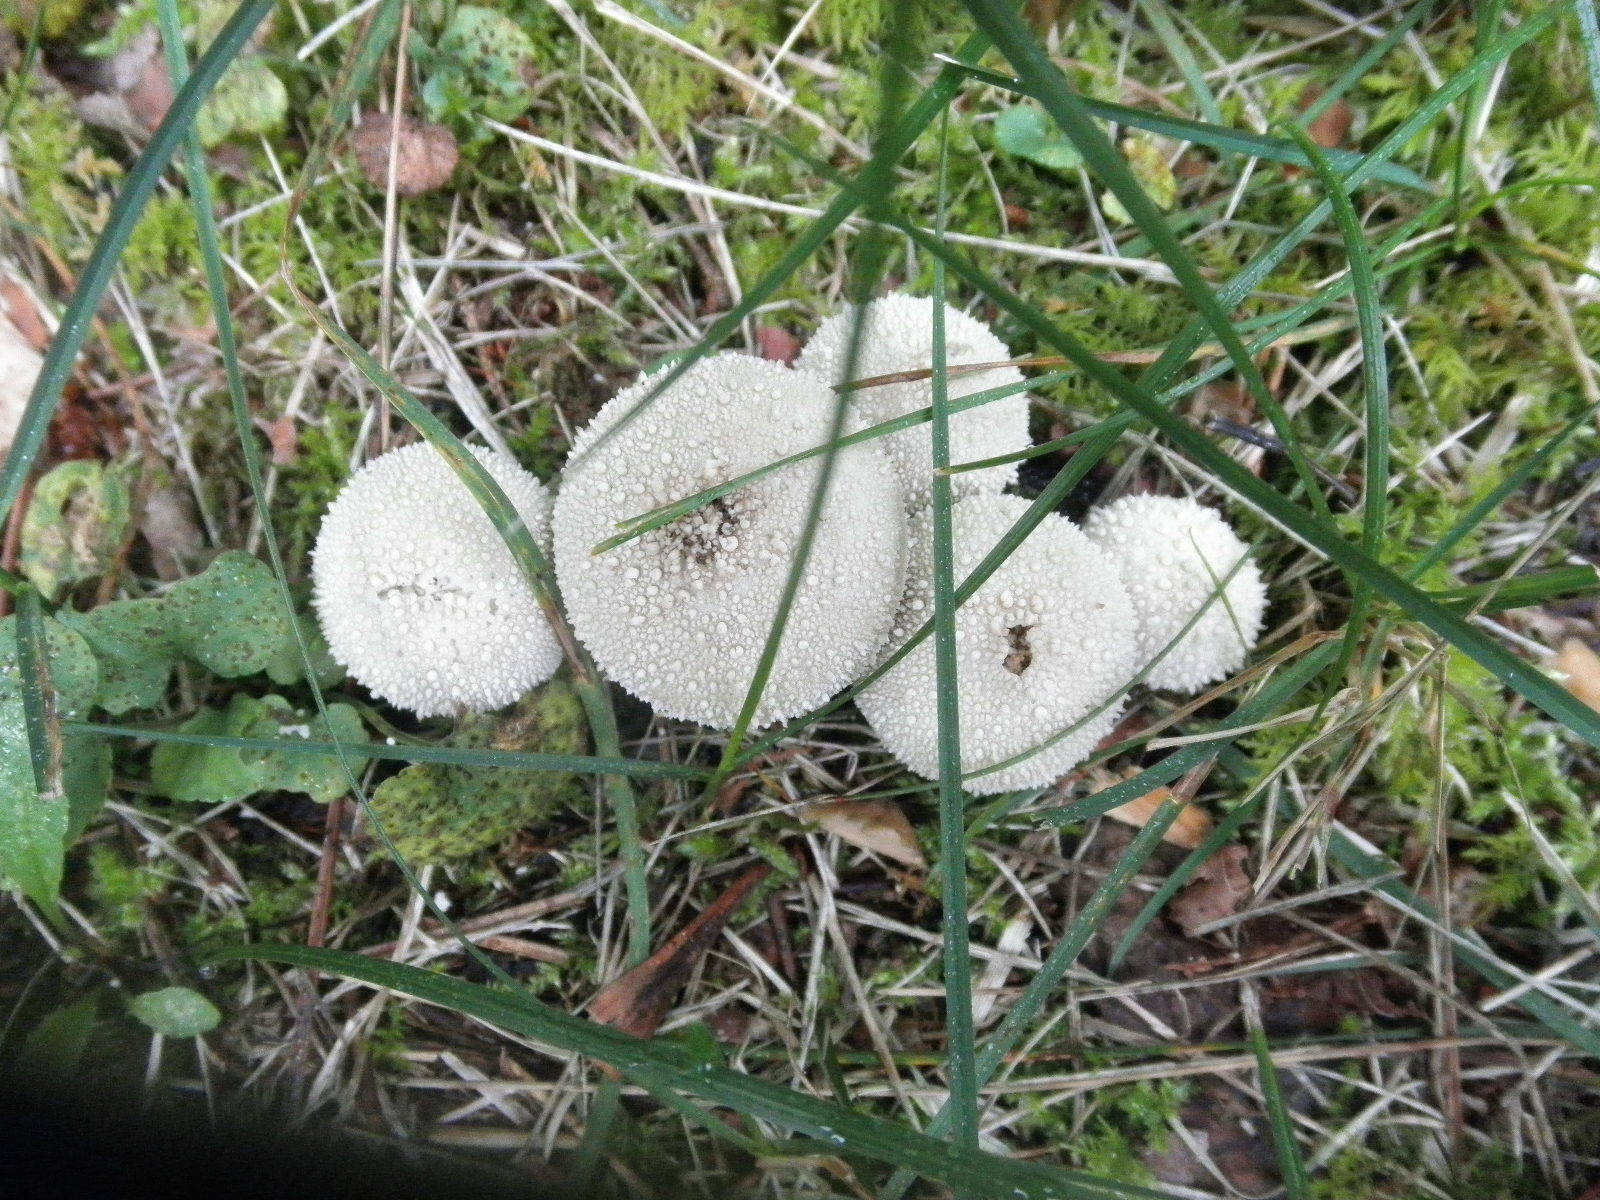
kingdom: Fungi
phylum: Basidiomycota
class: Agaricomycetes
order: Agaricales
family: Lycoperdaceae
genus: Lycoperdon
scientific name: Lycoperdon perlatum
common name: Common puffball
